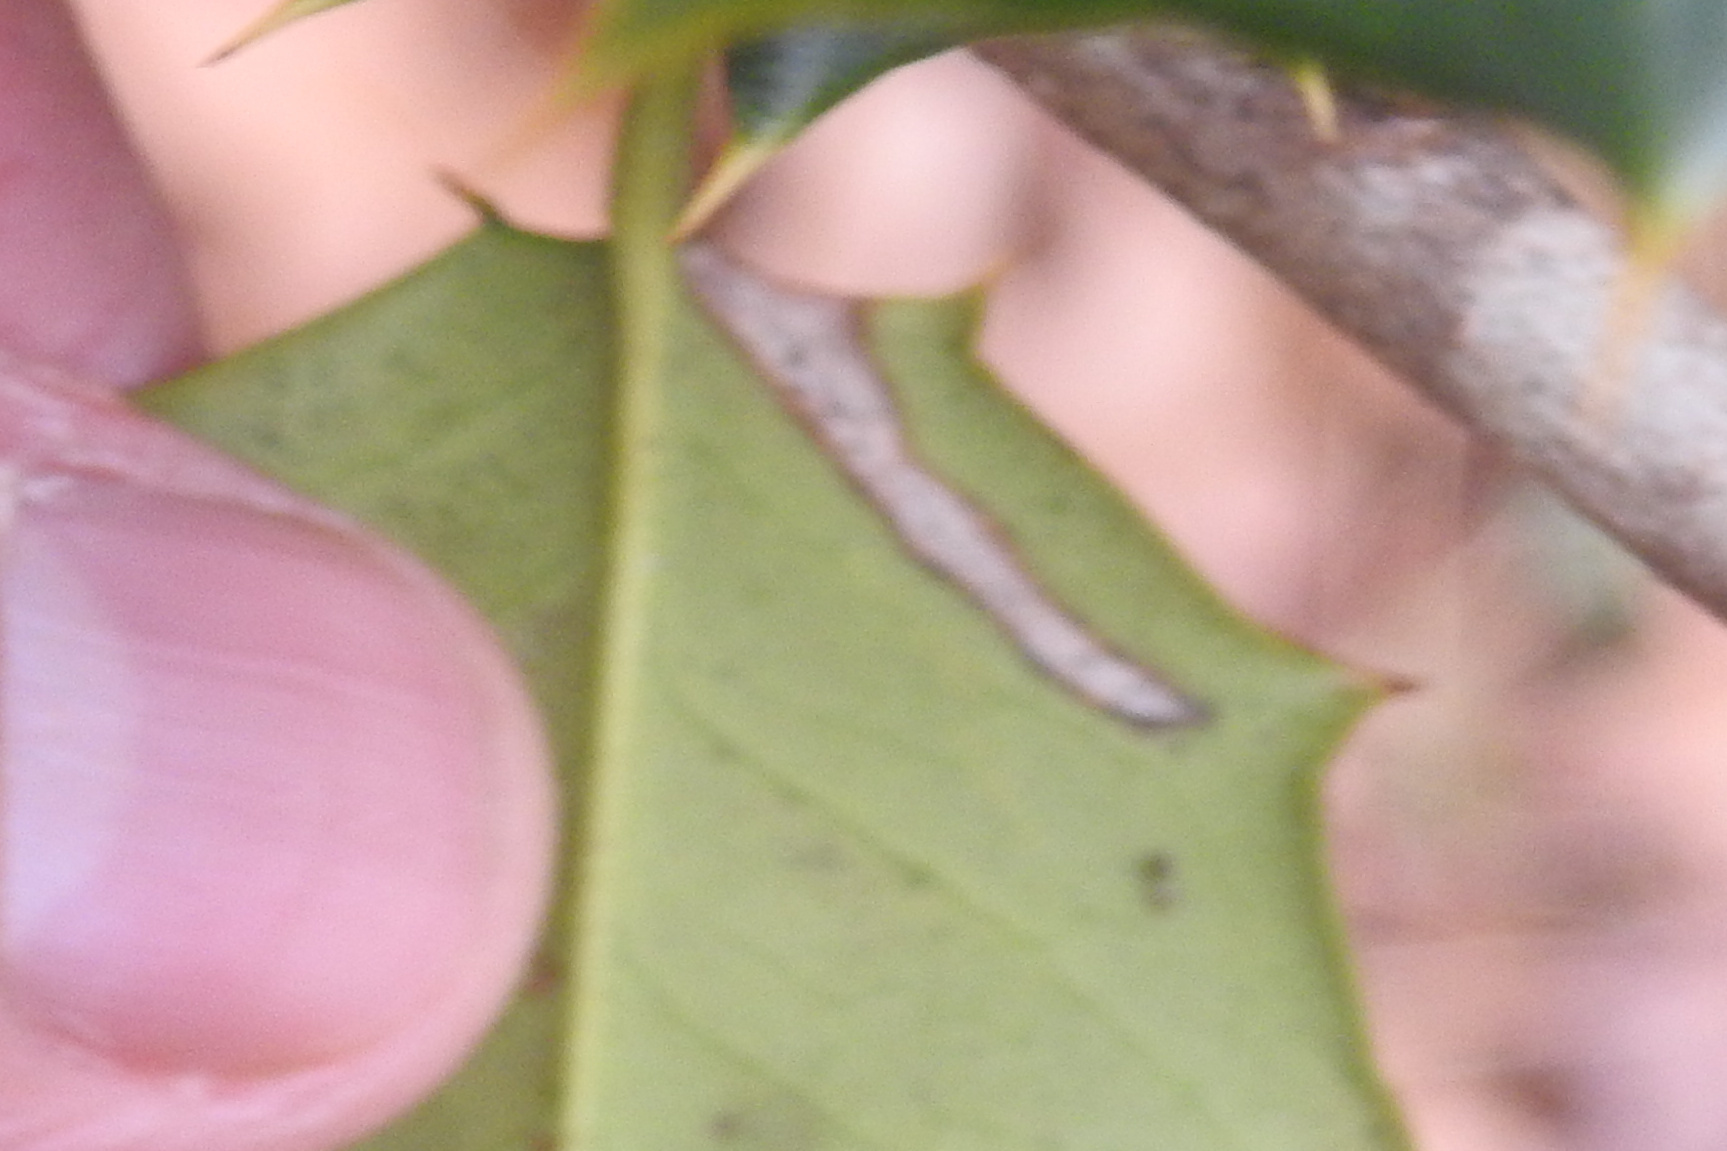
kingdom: Animalia
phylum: Arthropoda
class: Insecta
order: Diptera
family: Agromyzidae
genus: Phytomyza
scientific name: Phytomyza ilicicola
